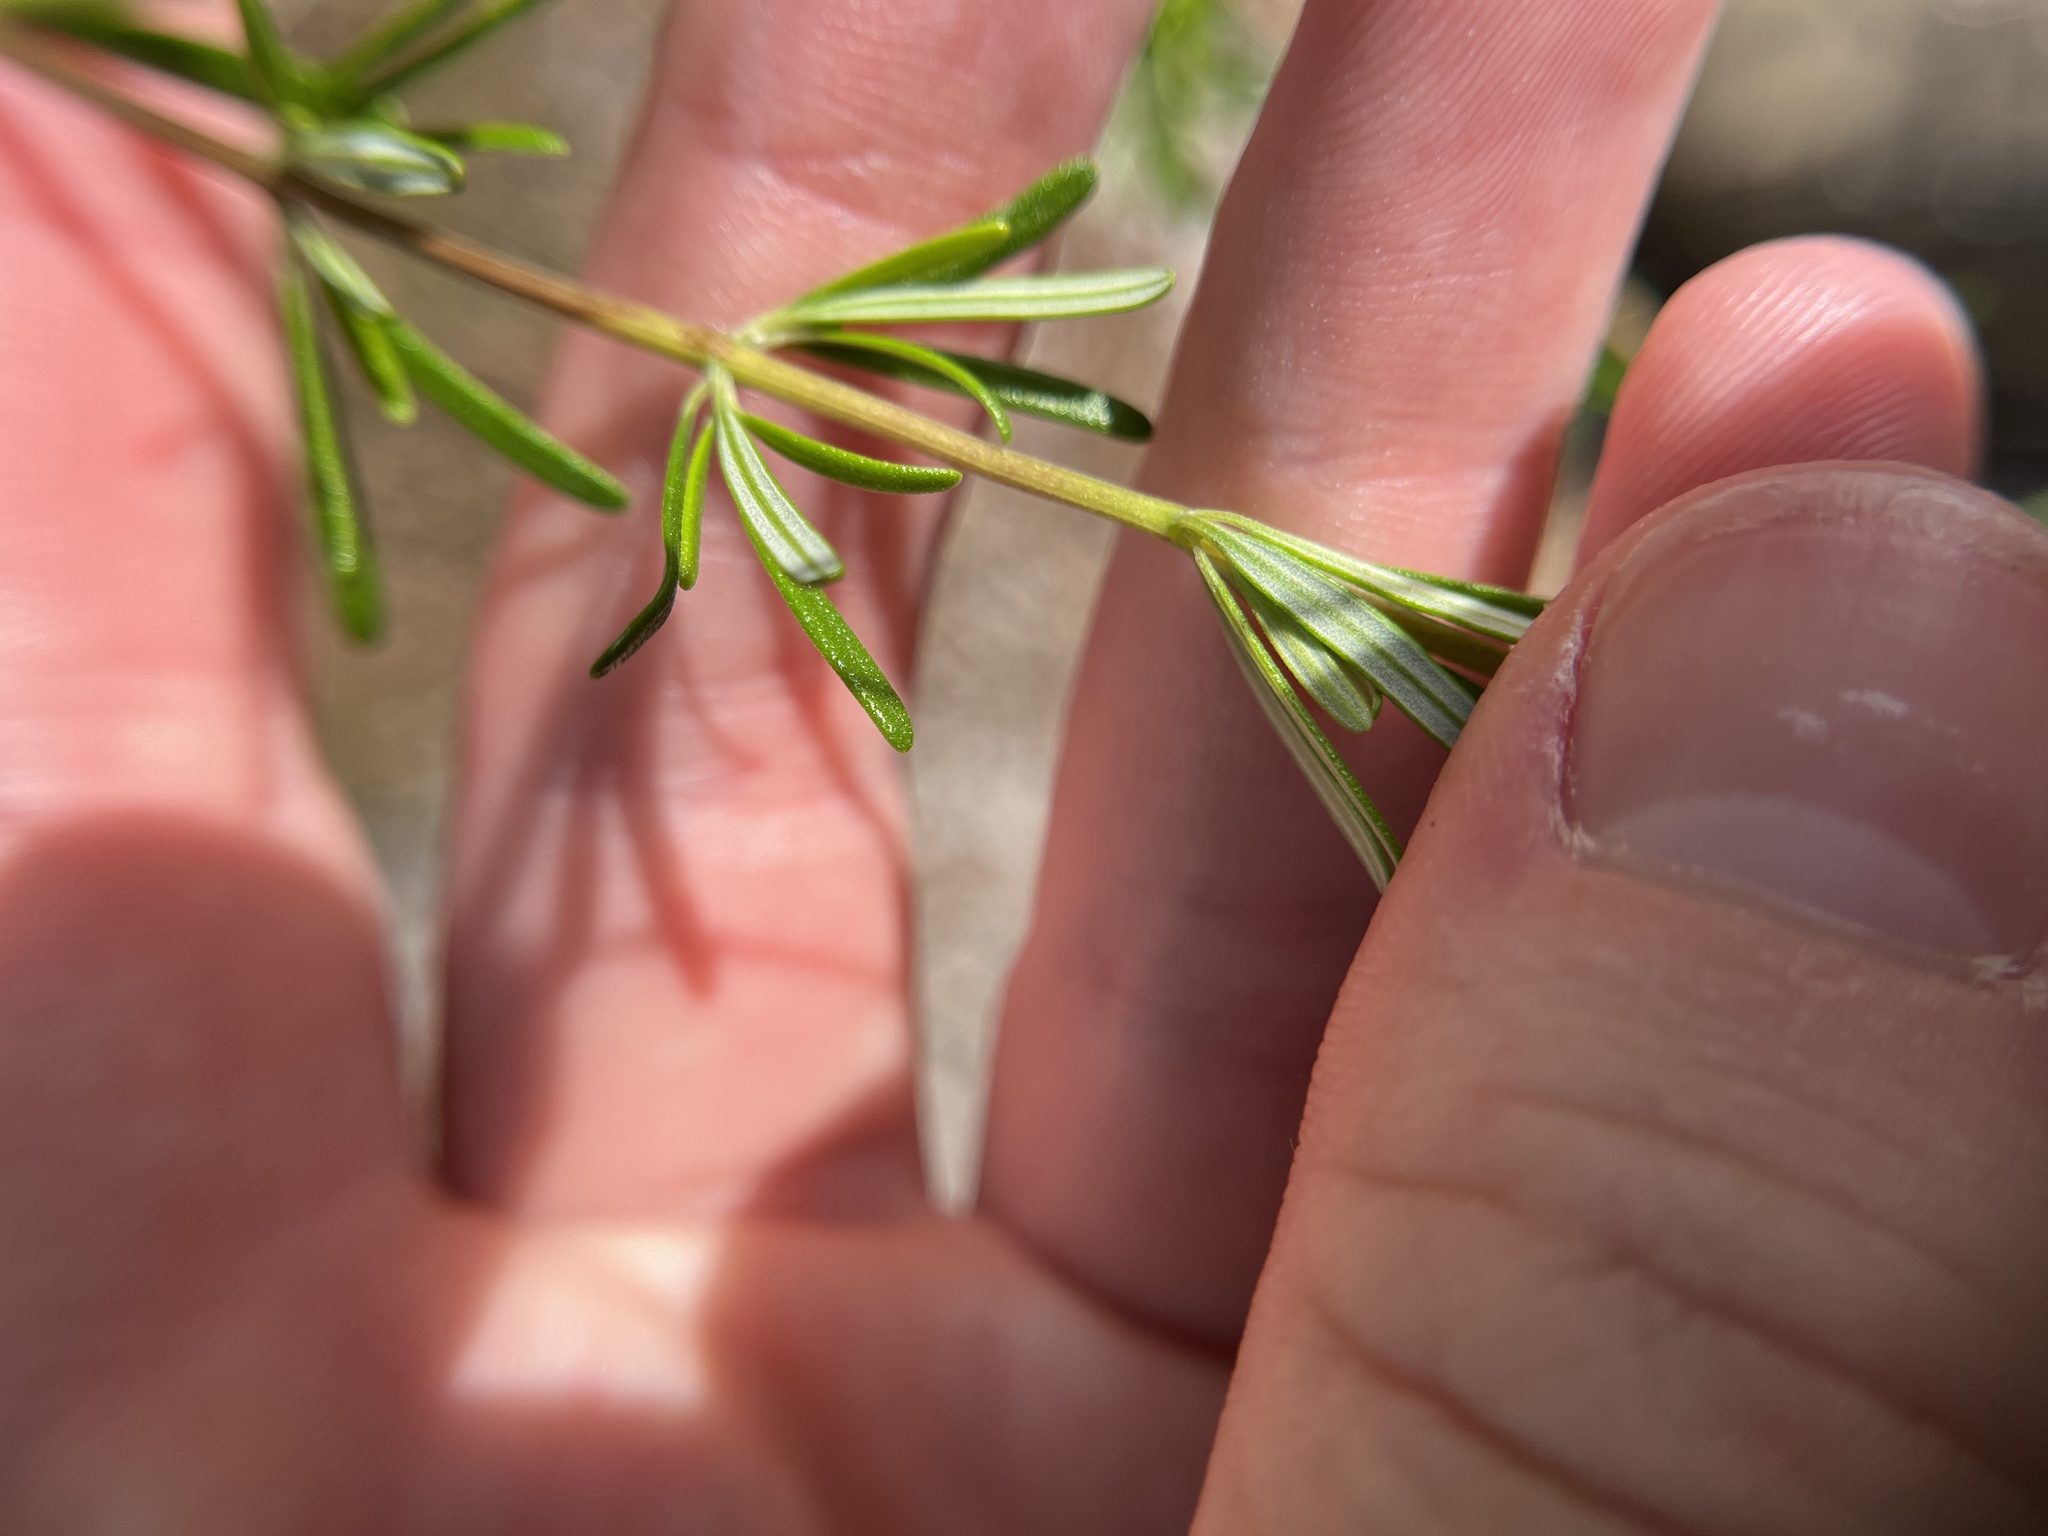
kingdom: Plantae
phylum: Tracheophyta
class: Magnoliopsida
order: Lamiales
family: Lamiaceae
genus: Conradina
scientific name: Conradina grandiflora
